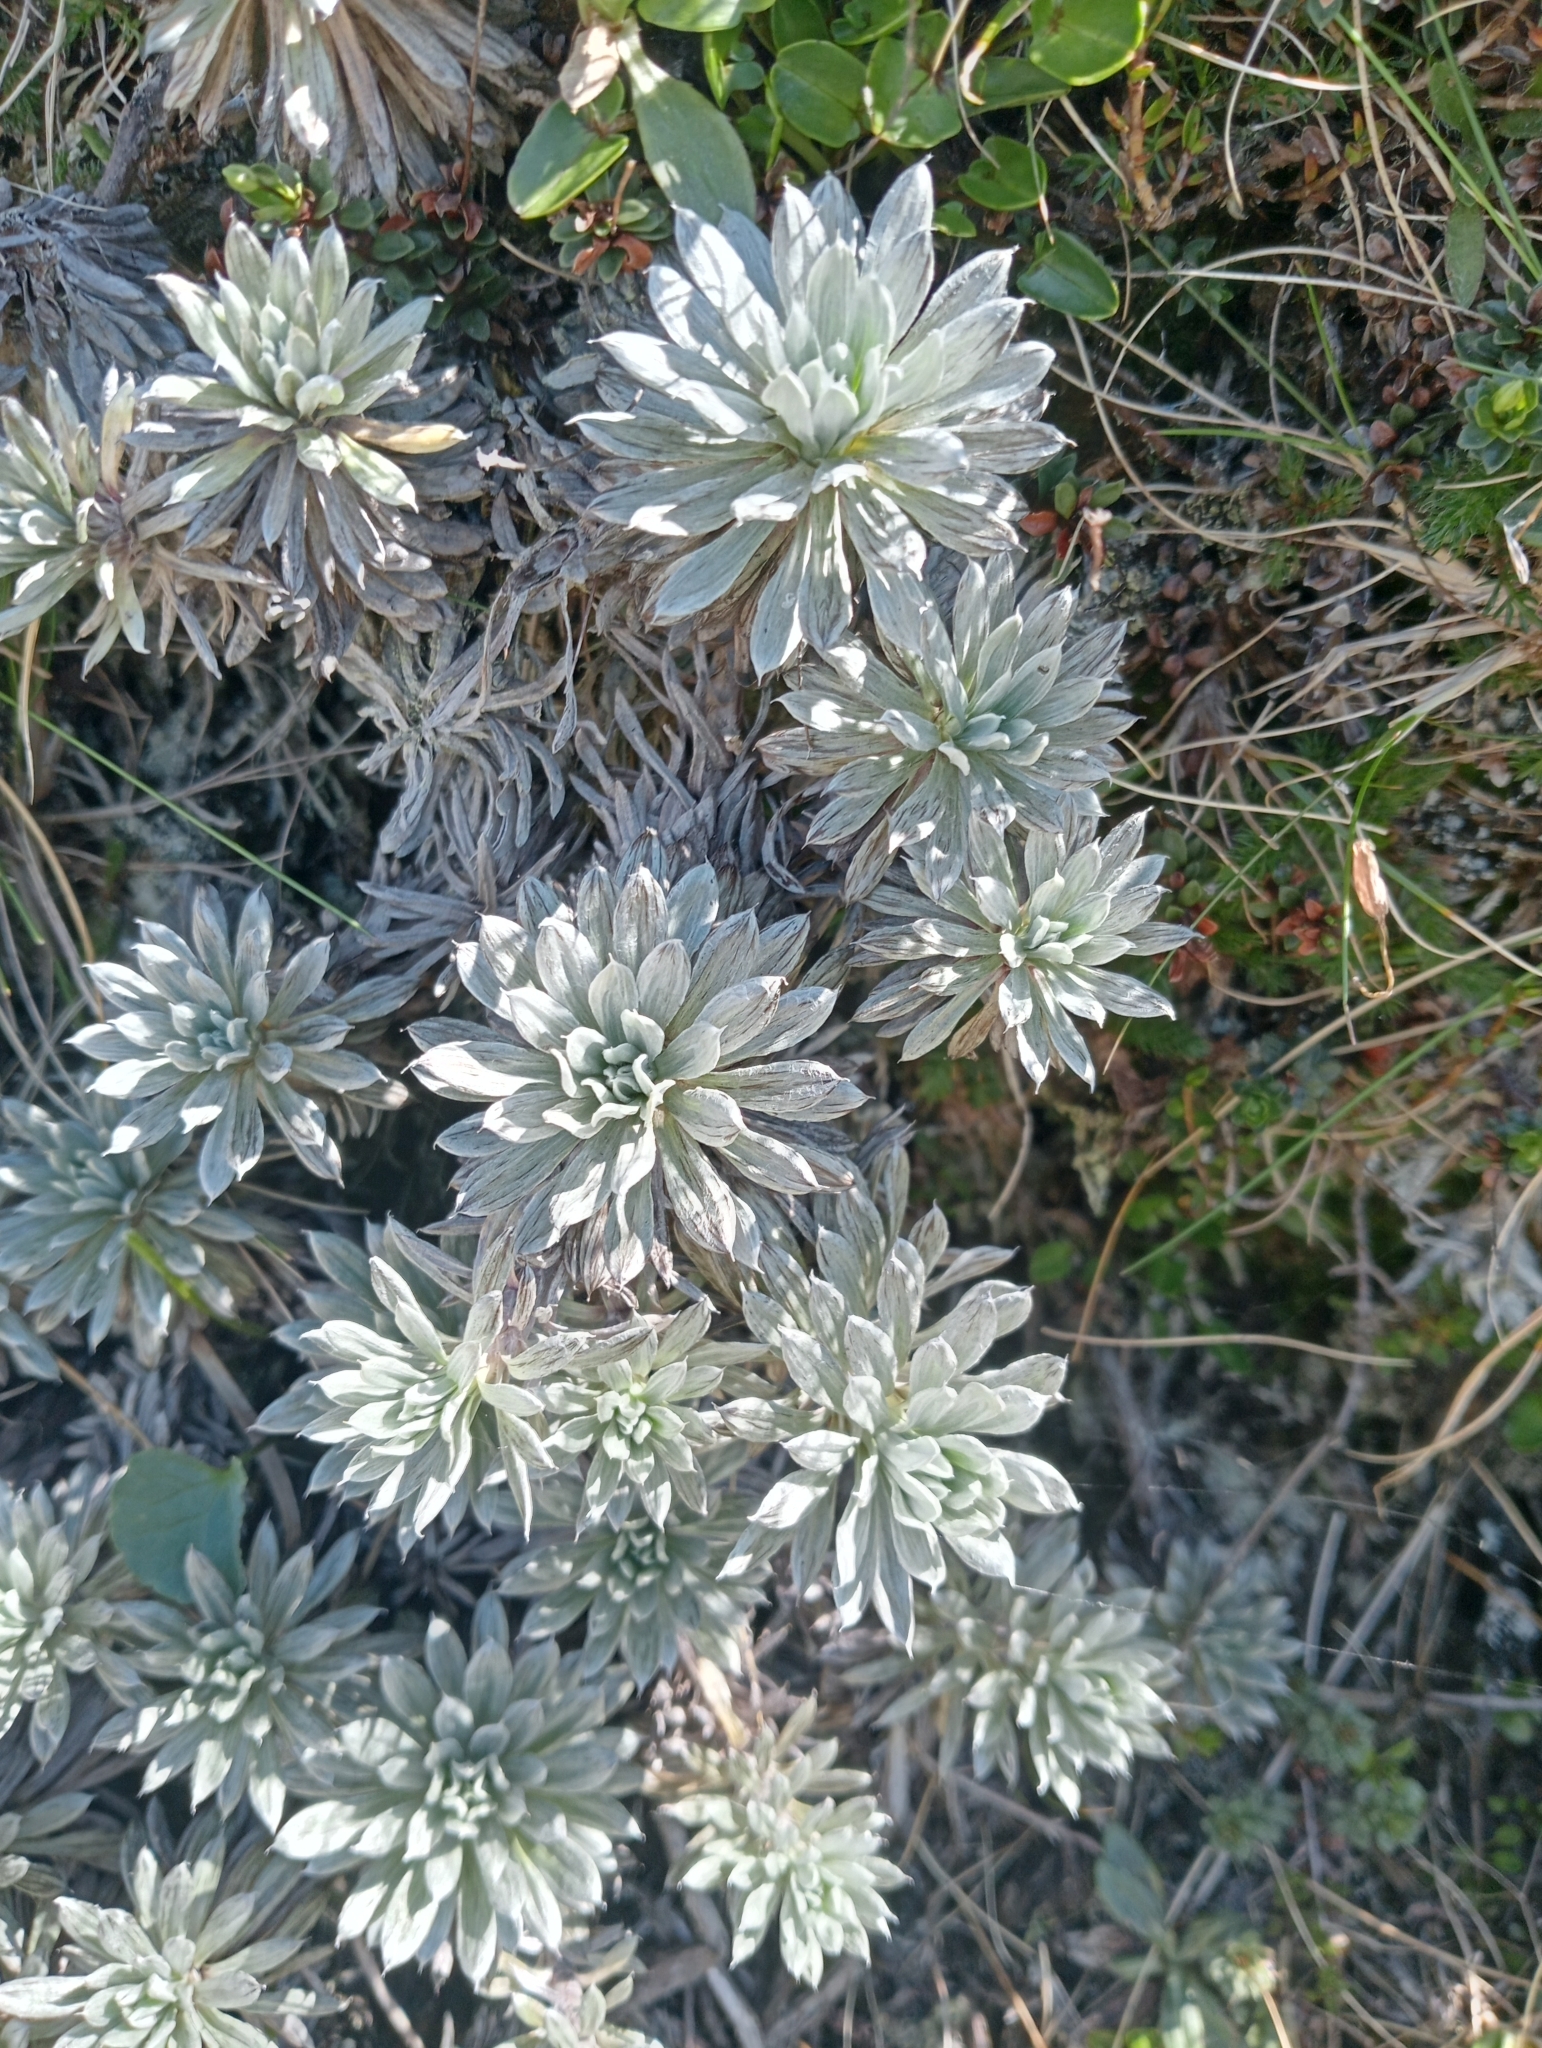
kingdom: Plantae
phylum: Tracheophyta
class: Magnoliopsida
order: Asterales
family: Asteraceae
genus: Celmisia
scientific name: Celmisia hectorii
